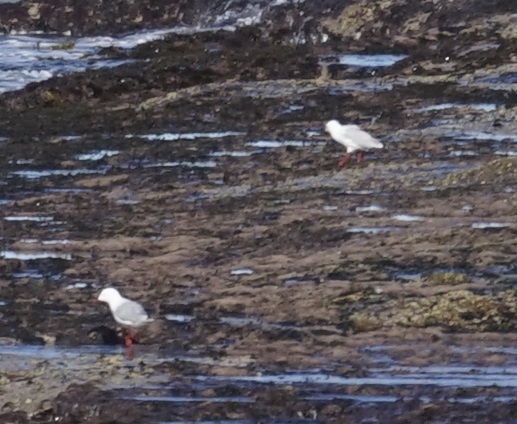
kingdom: Animalia
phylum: Chordata
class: Aves
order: Charadriiformes
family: Laridae
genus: Chroicocephalus
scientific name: Chroicocephalus novaehollandiae
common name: Silver gull
